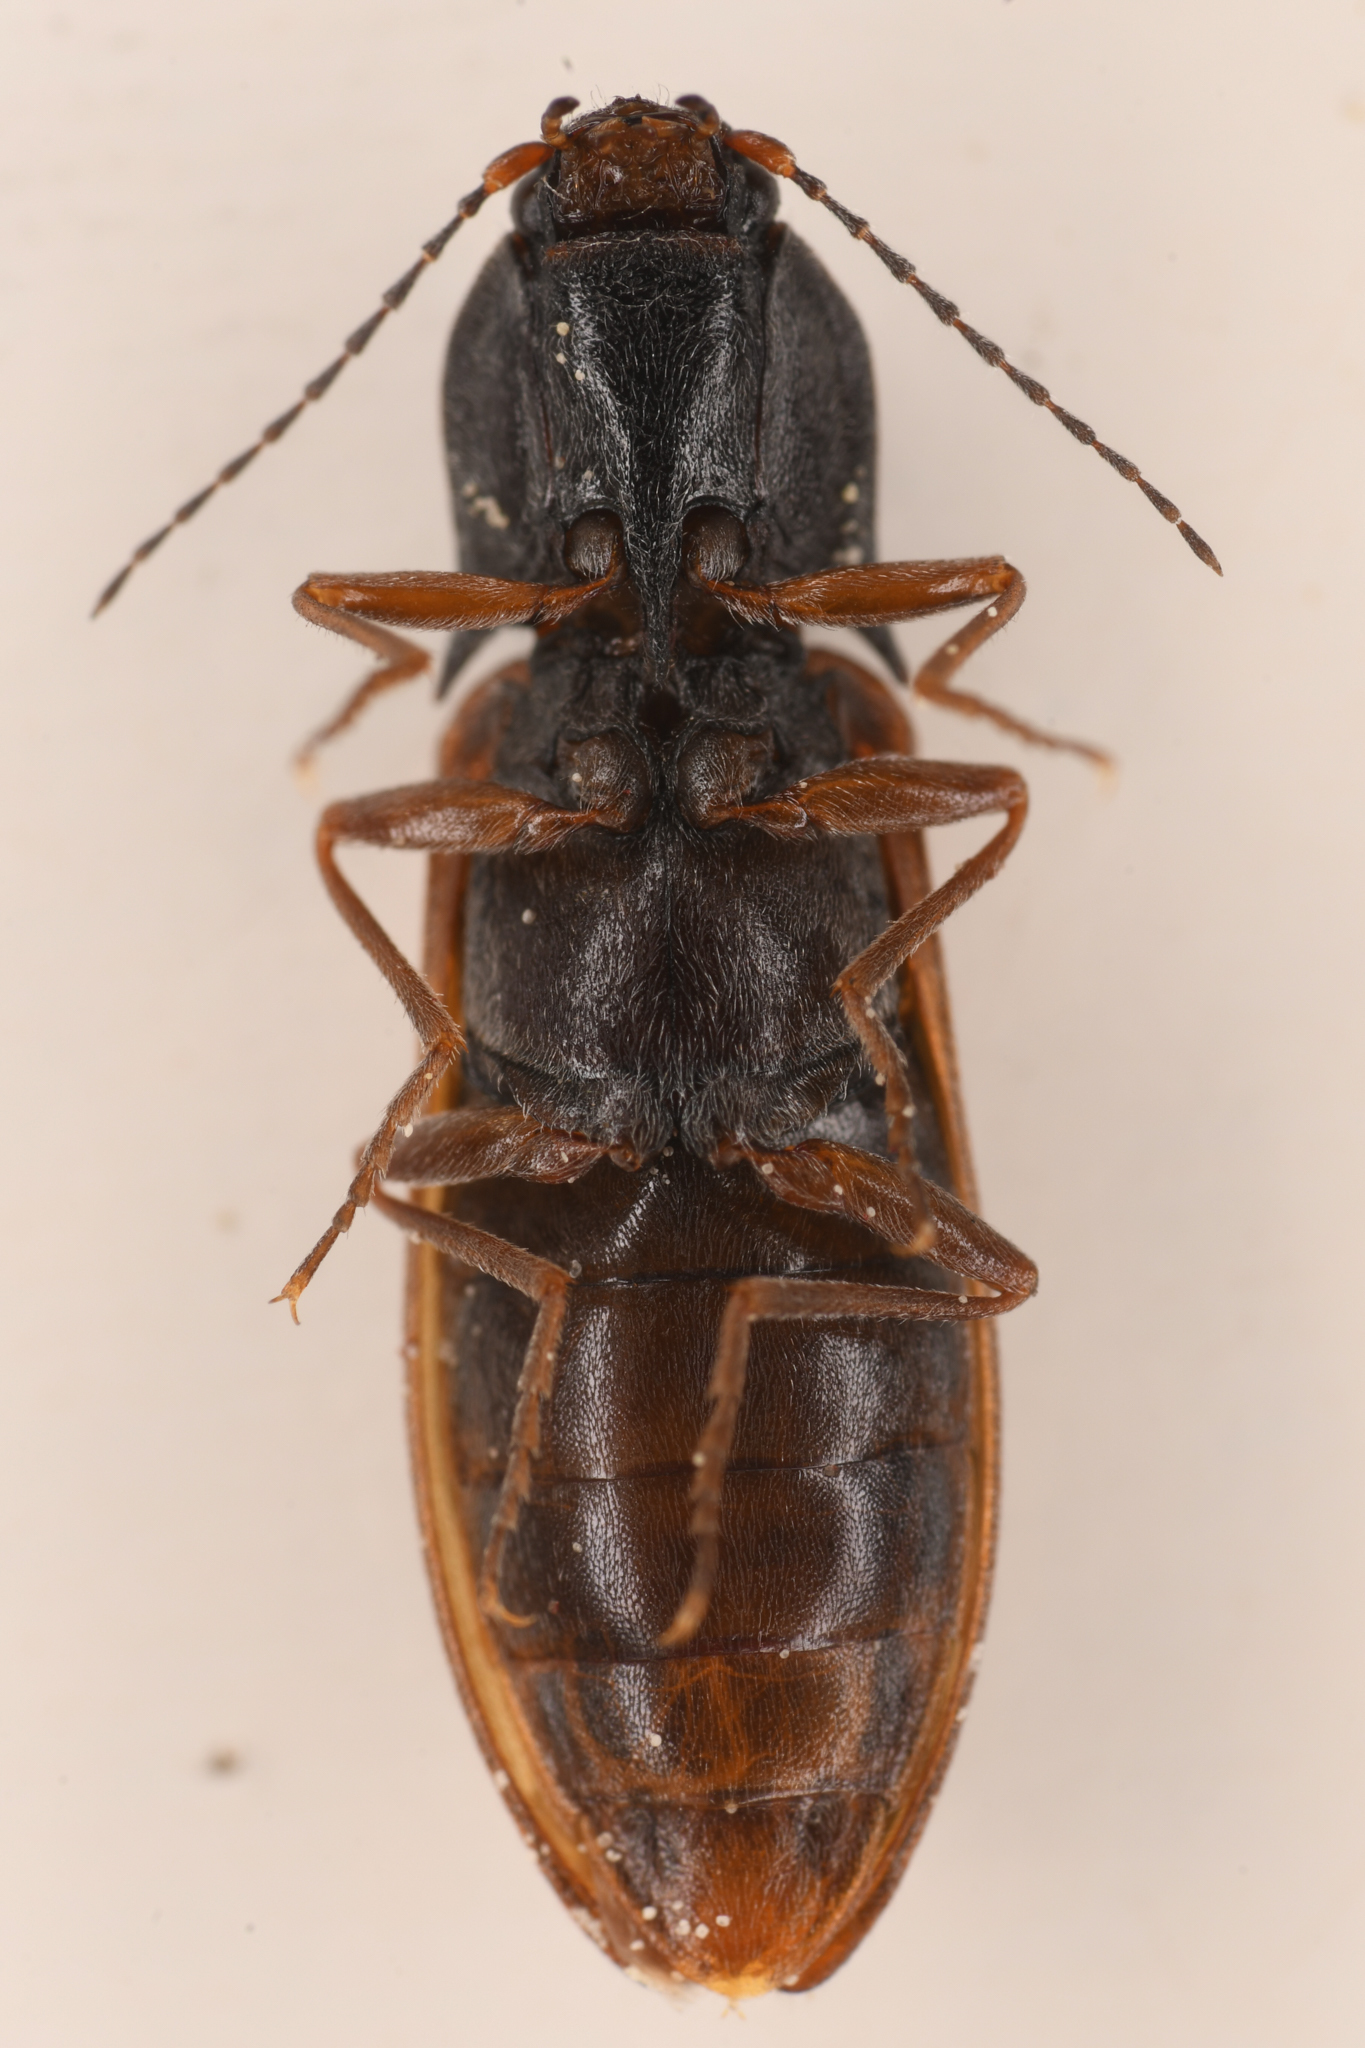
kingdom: Animalia
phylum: Arthropoda
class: Insecta
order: Coleoptera
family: Elateridae
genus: Acteniceromorphus
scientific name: Acteniceromorphus
